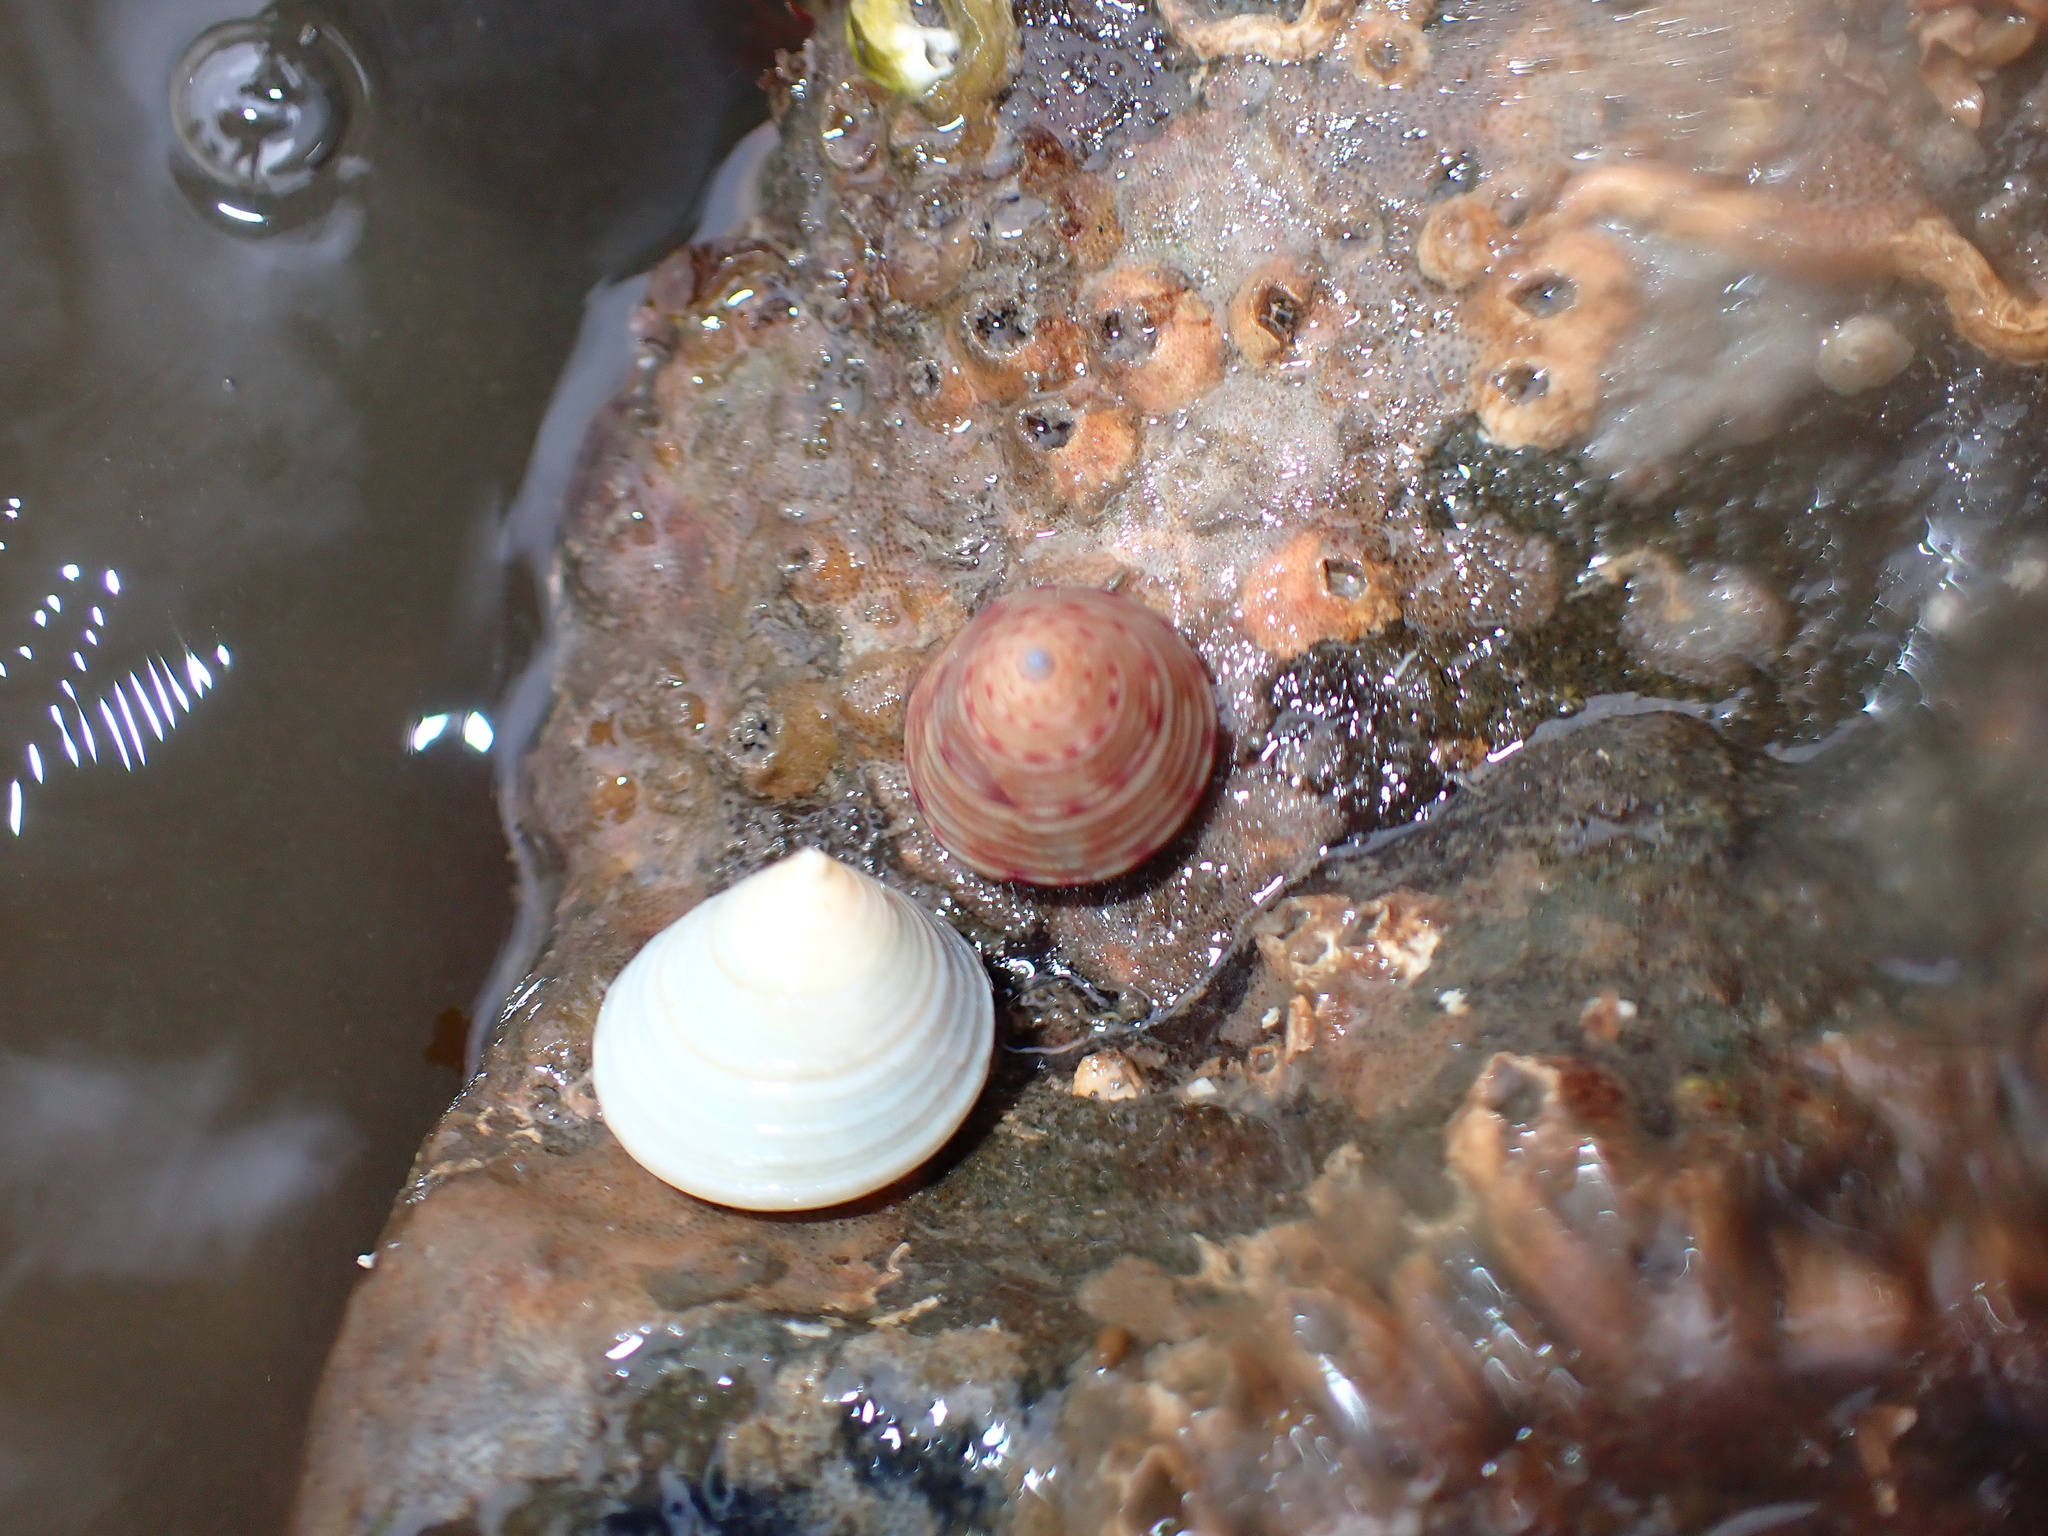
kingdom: Animalia
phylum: Mollusca
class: Gastropoda
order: Trochida
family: Calliostomatidae
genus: Calliostoma
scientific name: Calliostoma zizyphinum
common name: Painted top shell
